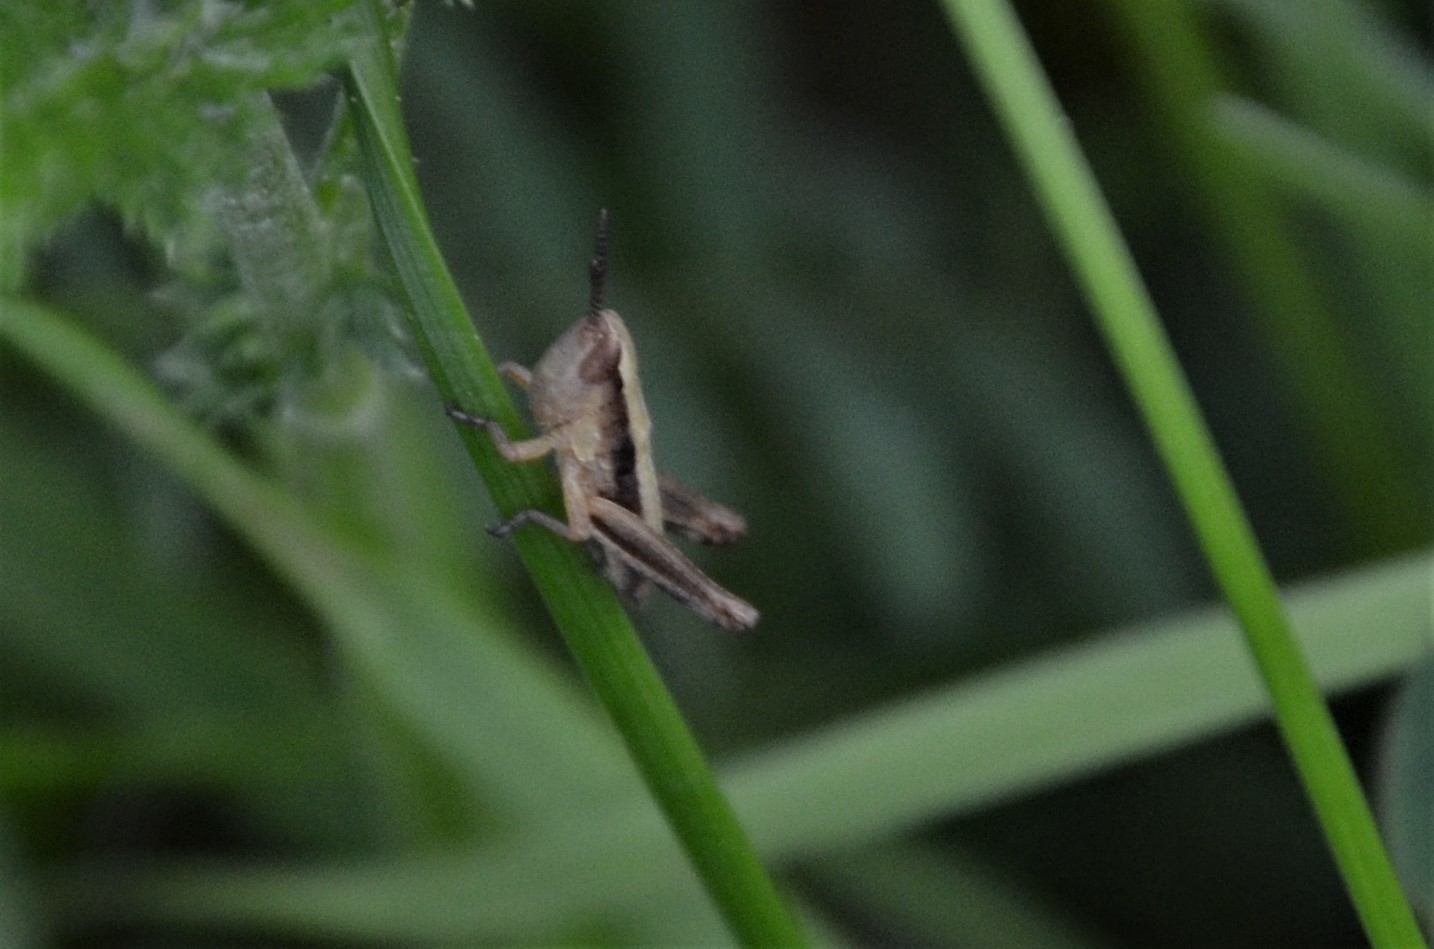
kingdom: Animalia
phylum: Arthropoda
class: Insecta
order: Orthoptera
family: Acrididae
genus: Pseudochorthippus
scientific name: Pseudochorthippus parallelus
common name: Meadow grasshopper
